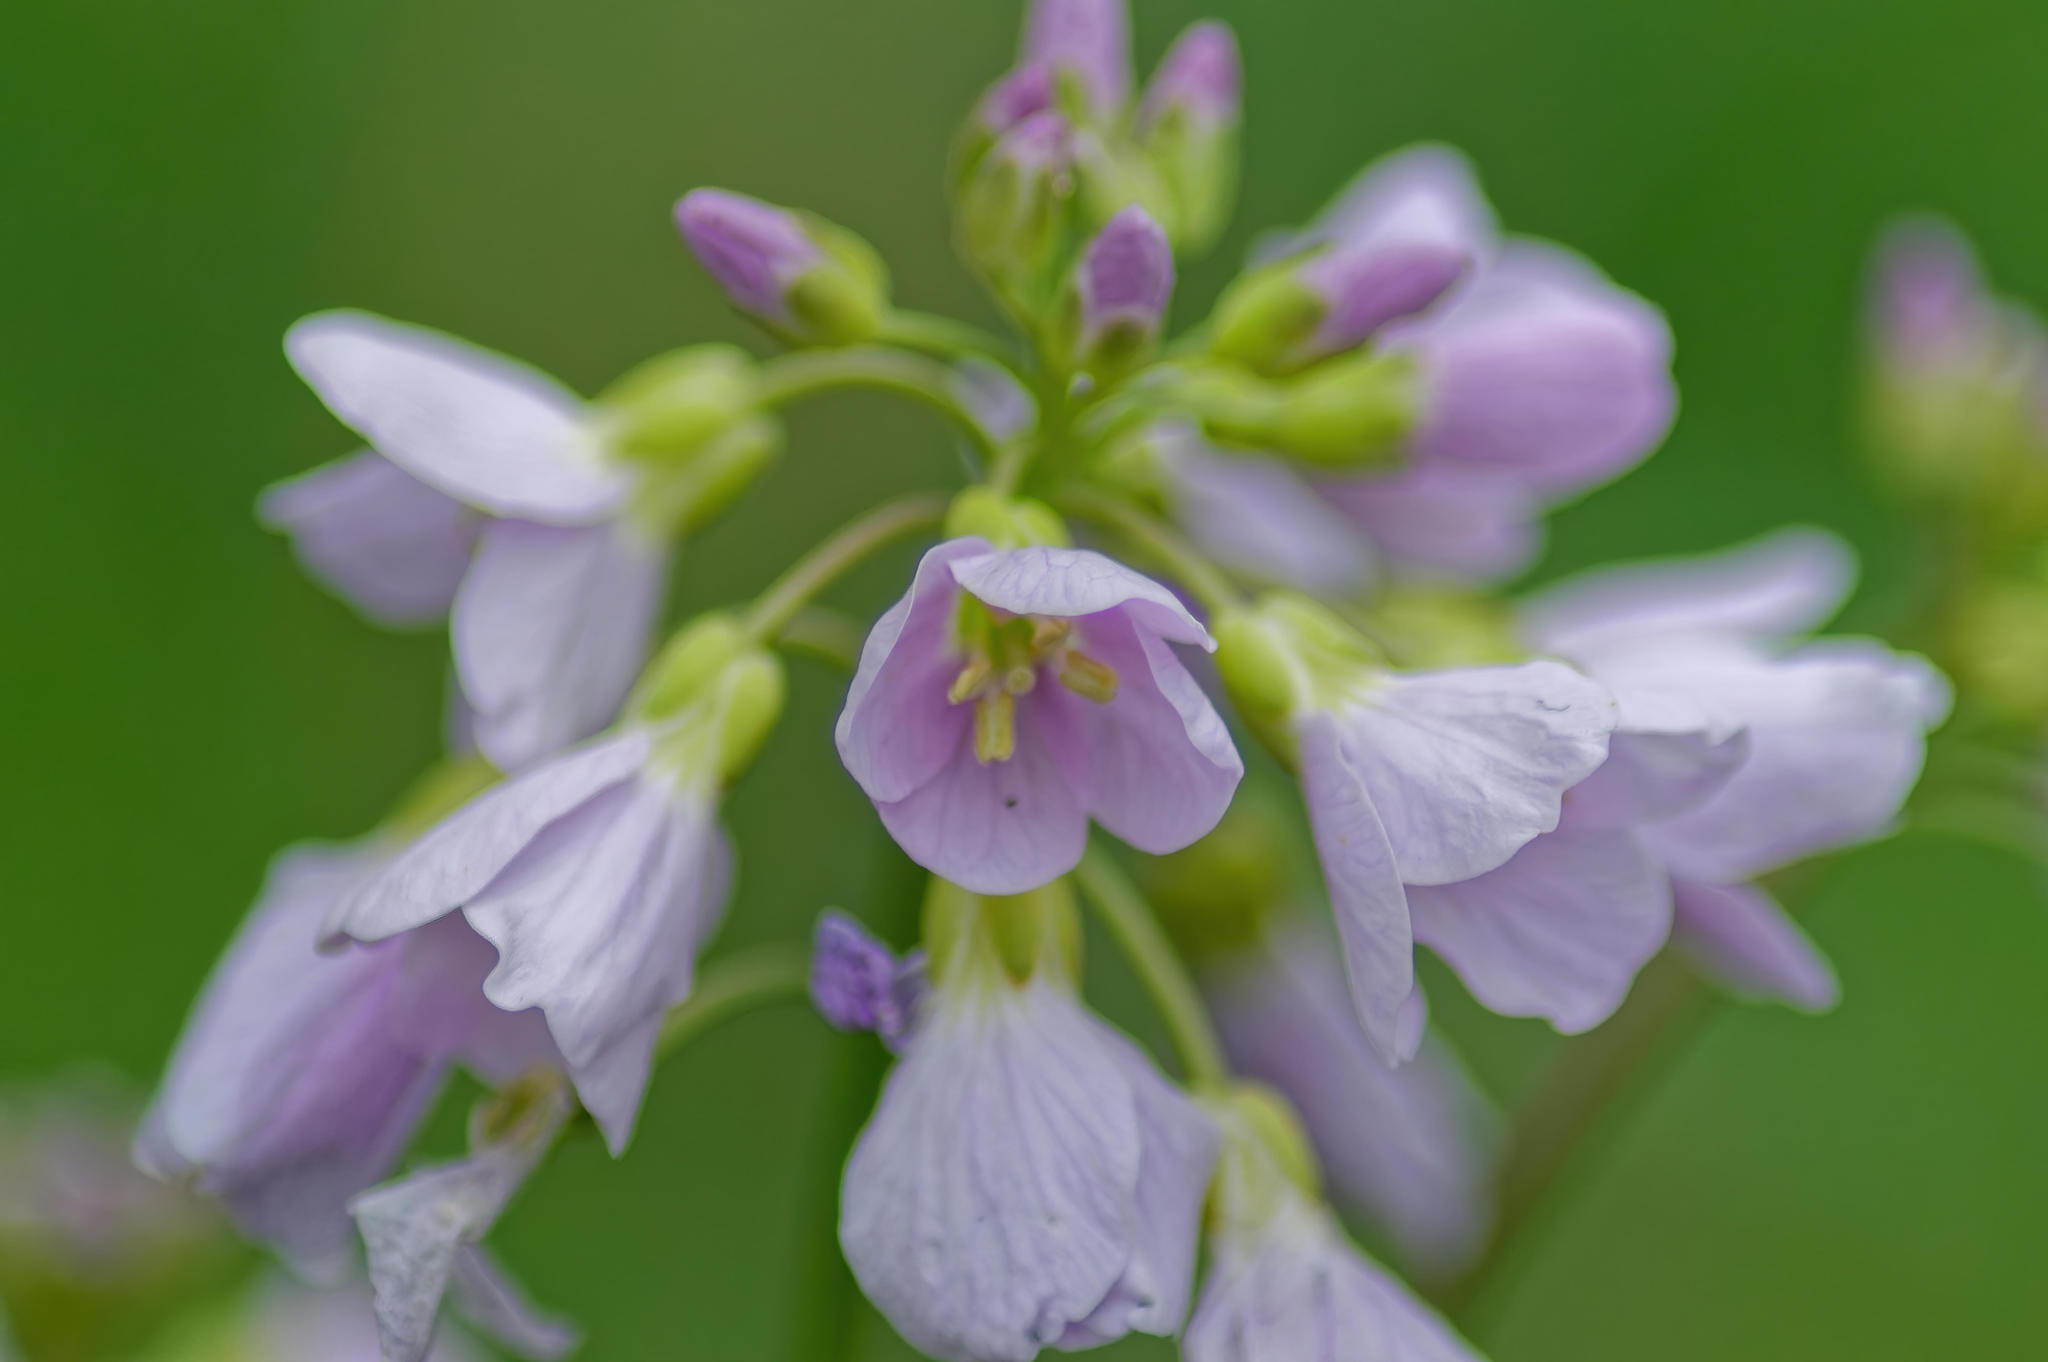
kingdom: Plantae
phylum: Tracheophyta
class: Magnoliopsida
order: Brassicales
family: Brassicaceae
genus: Cardamine
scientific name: Cardamine pratensis
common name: Cuckoo flower
